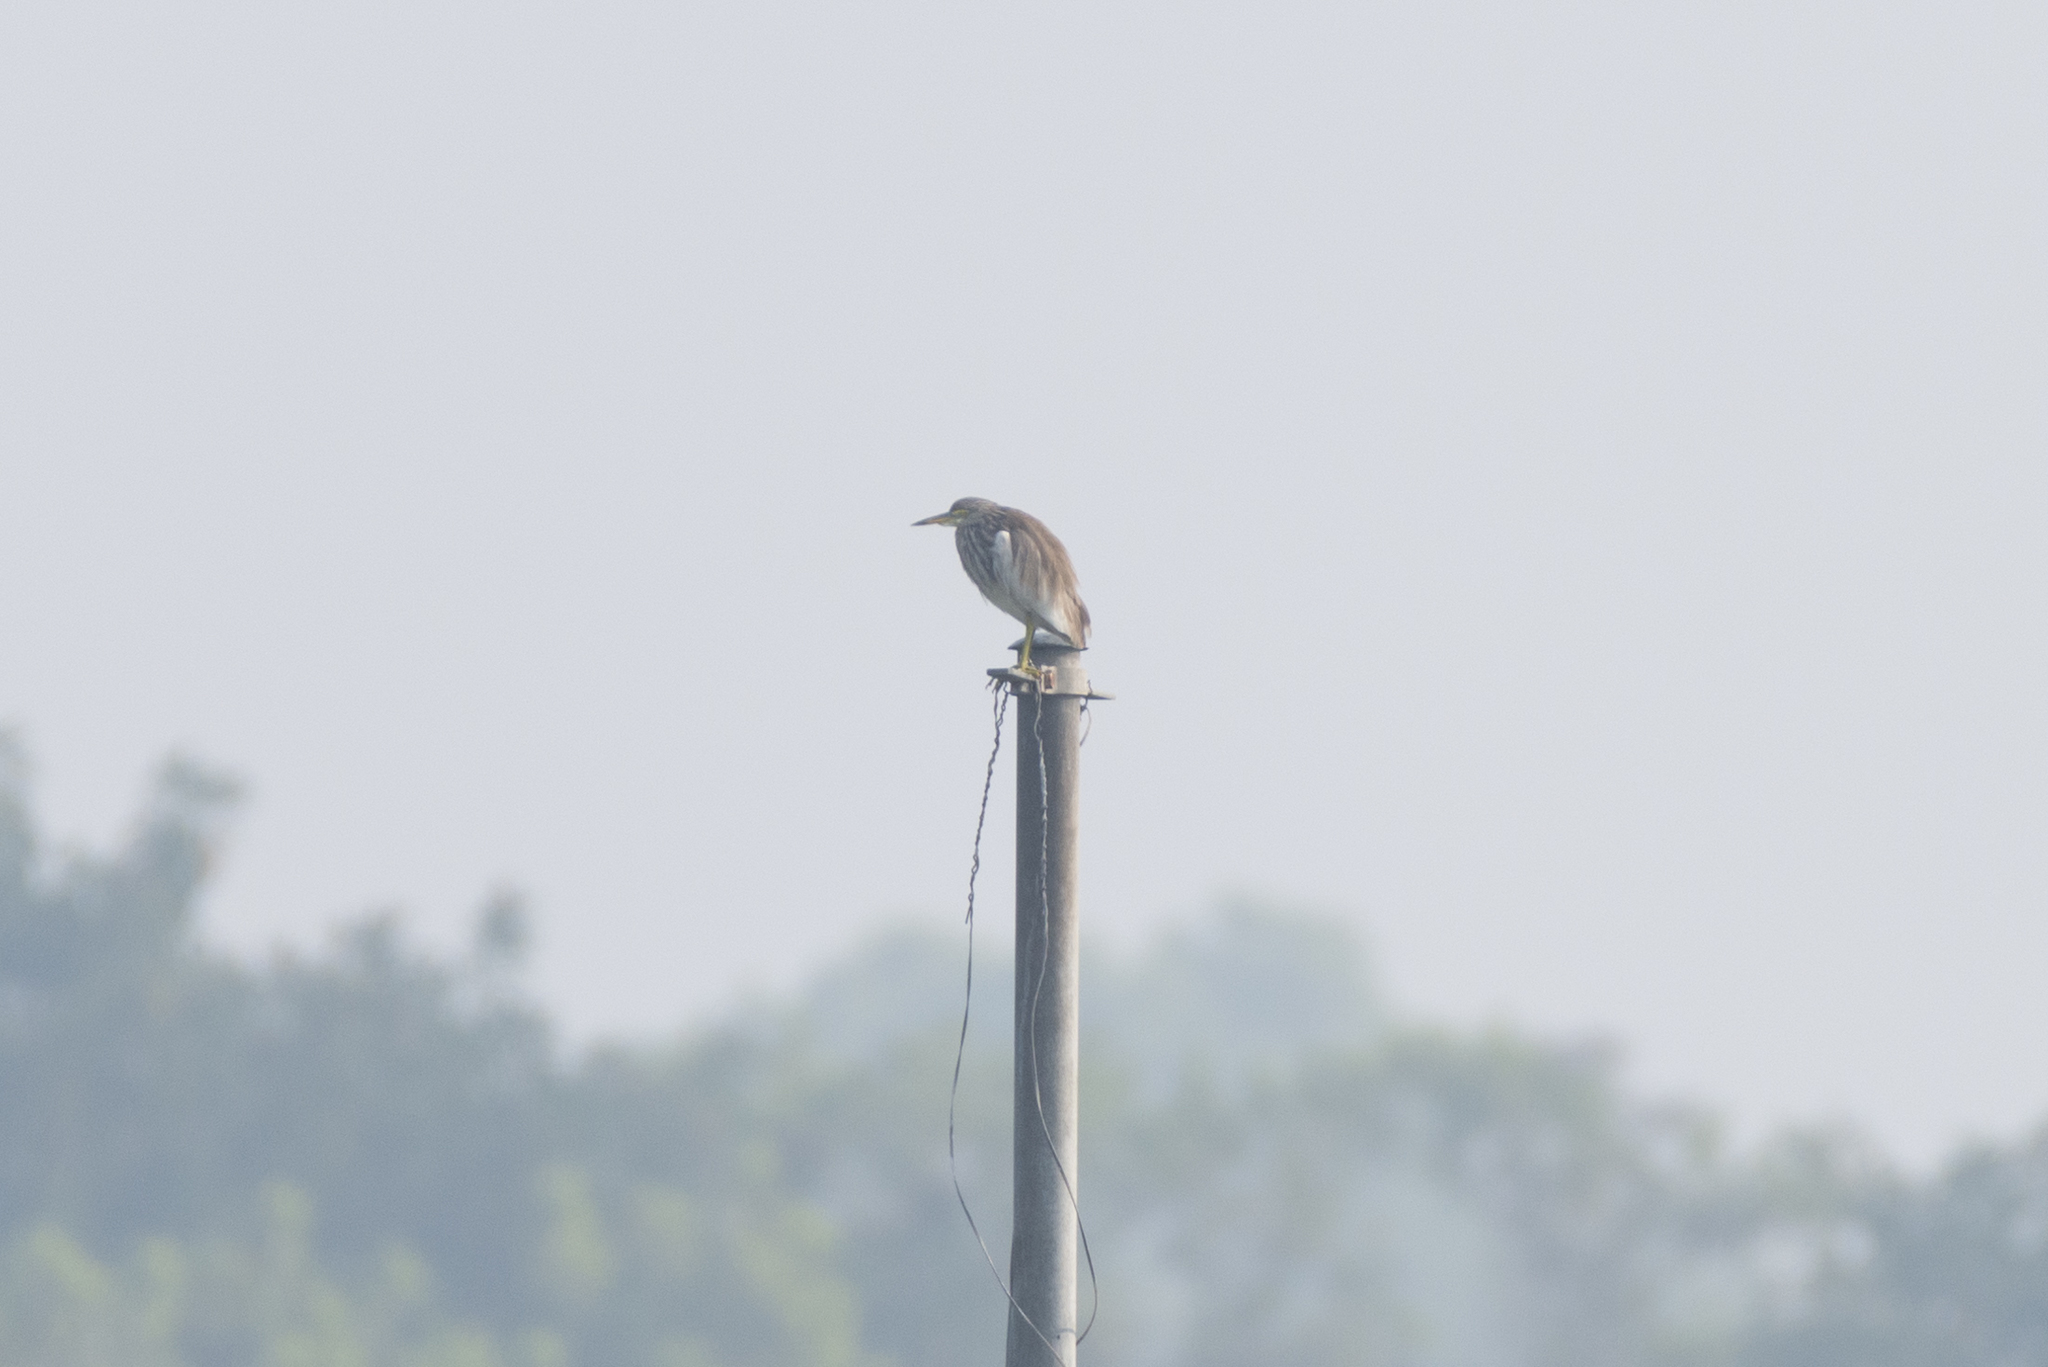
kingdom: Animalia
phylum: Chordata
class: Aves
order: Pelecaniformes
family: Ardeidae
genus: Ardeola
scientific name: Ardeola bacchus
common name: Chinese pond heron
